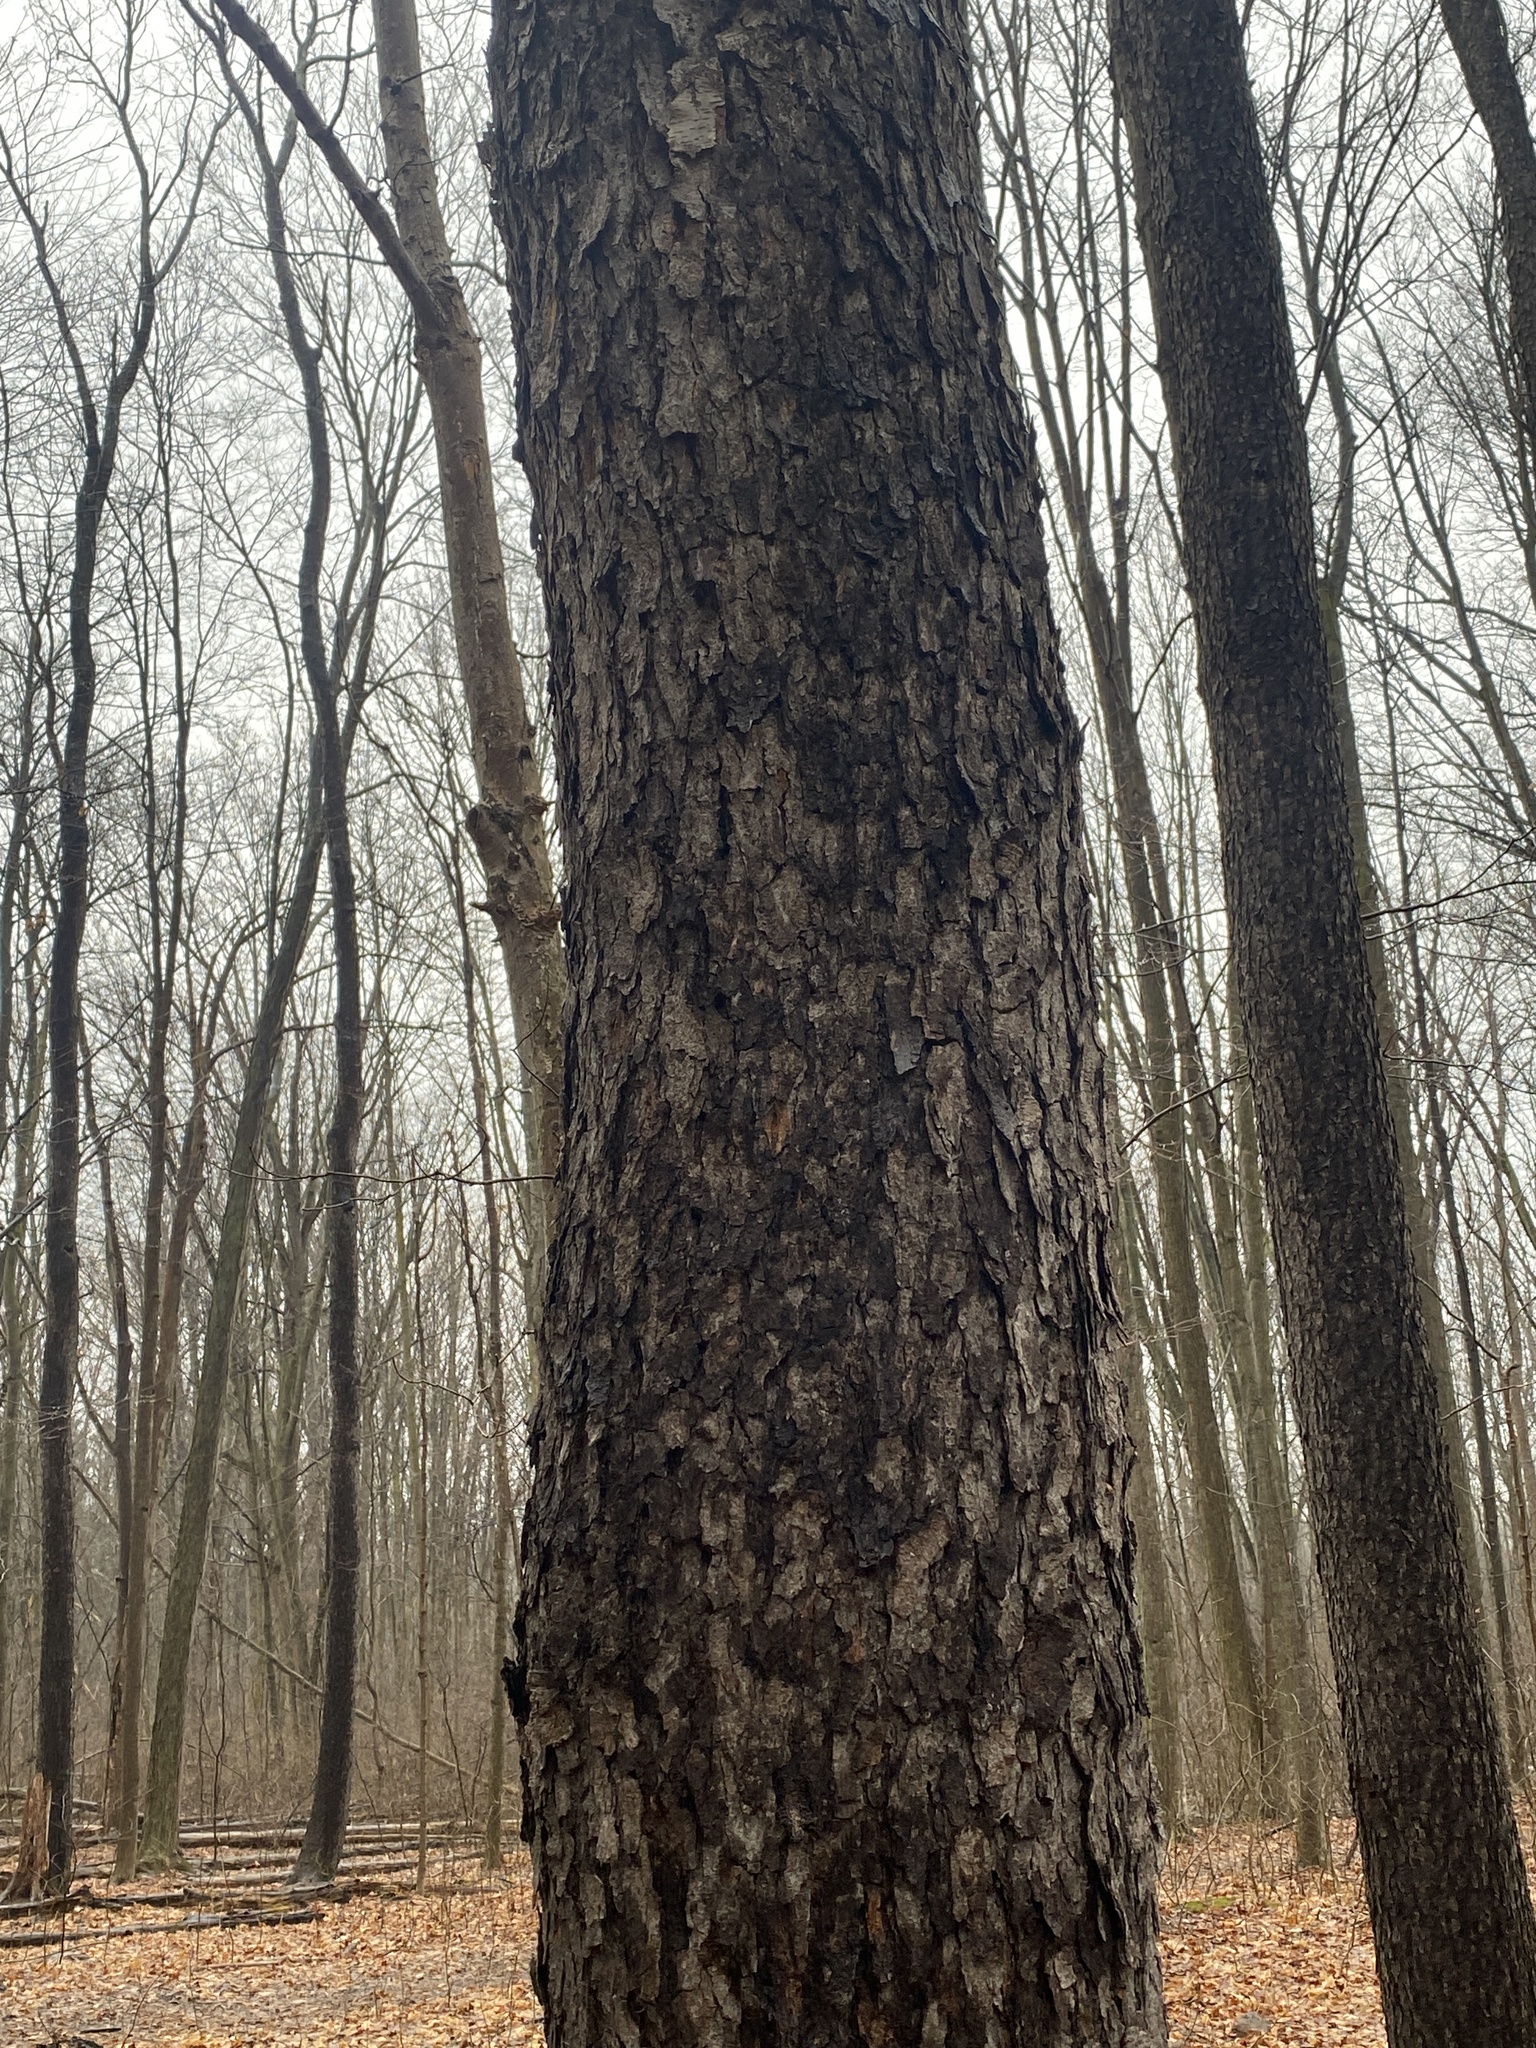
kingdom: Plantae
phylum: Tracheophyta
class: Magnoliopsida
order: Rosales
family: Rosaceae
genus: Prunus
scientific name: Prunus serotina
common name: Black cherry
